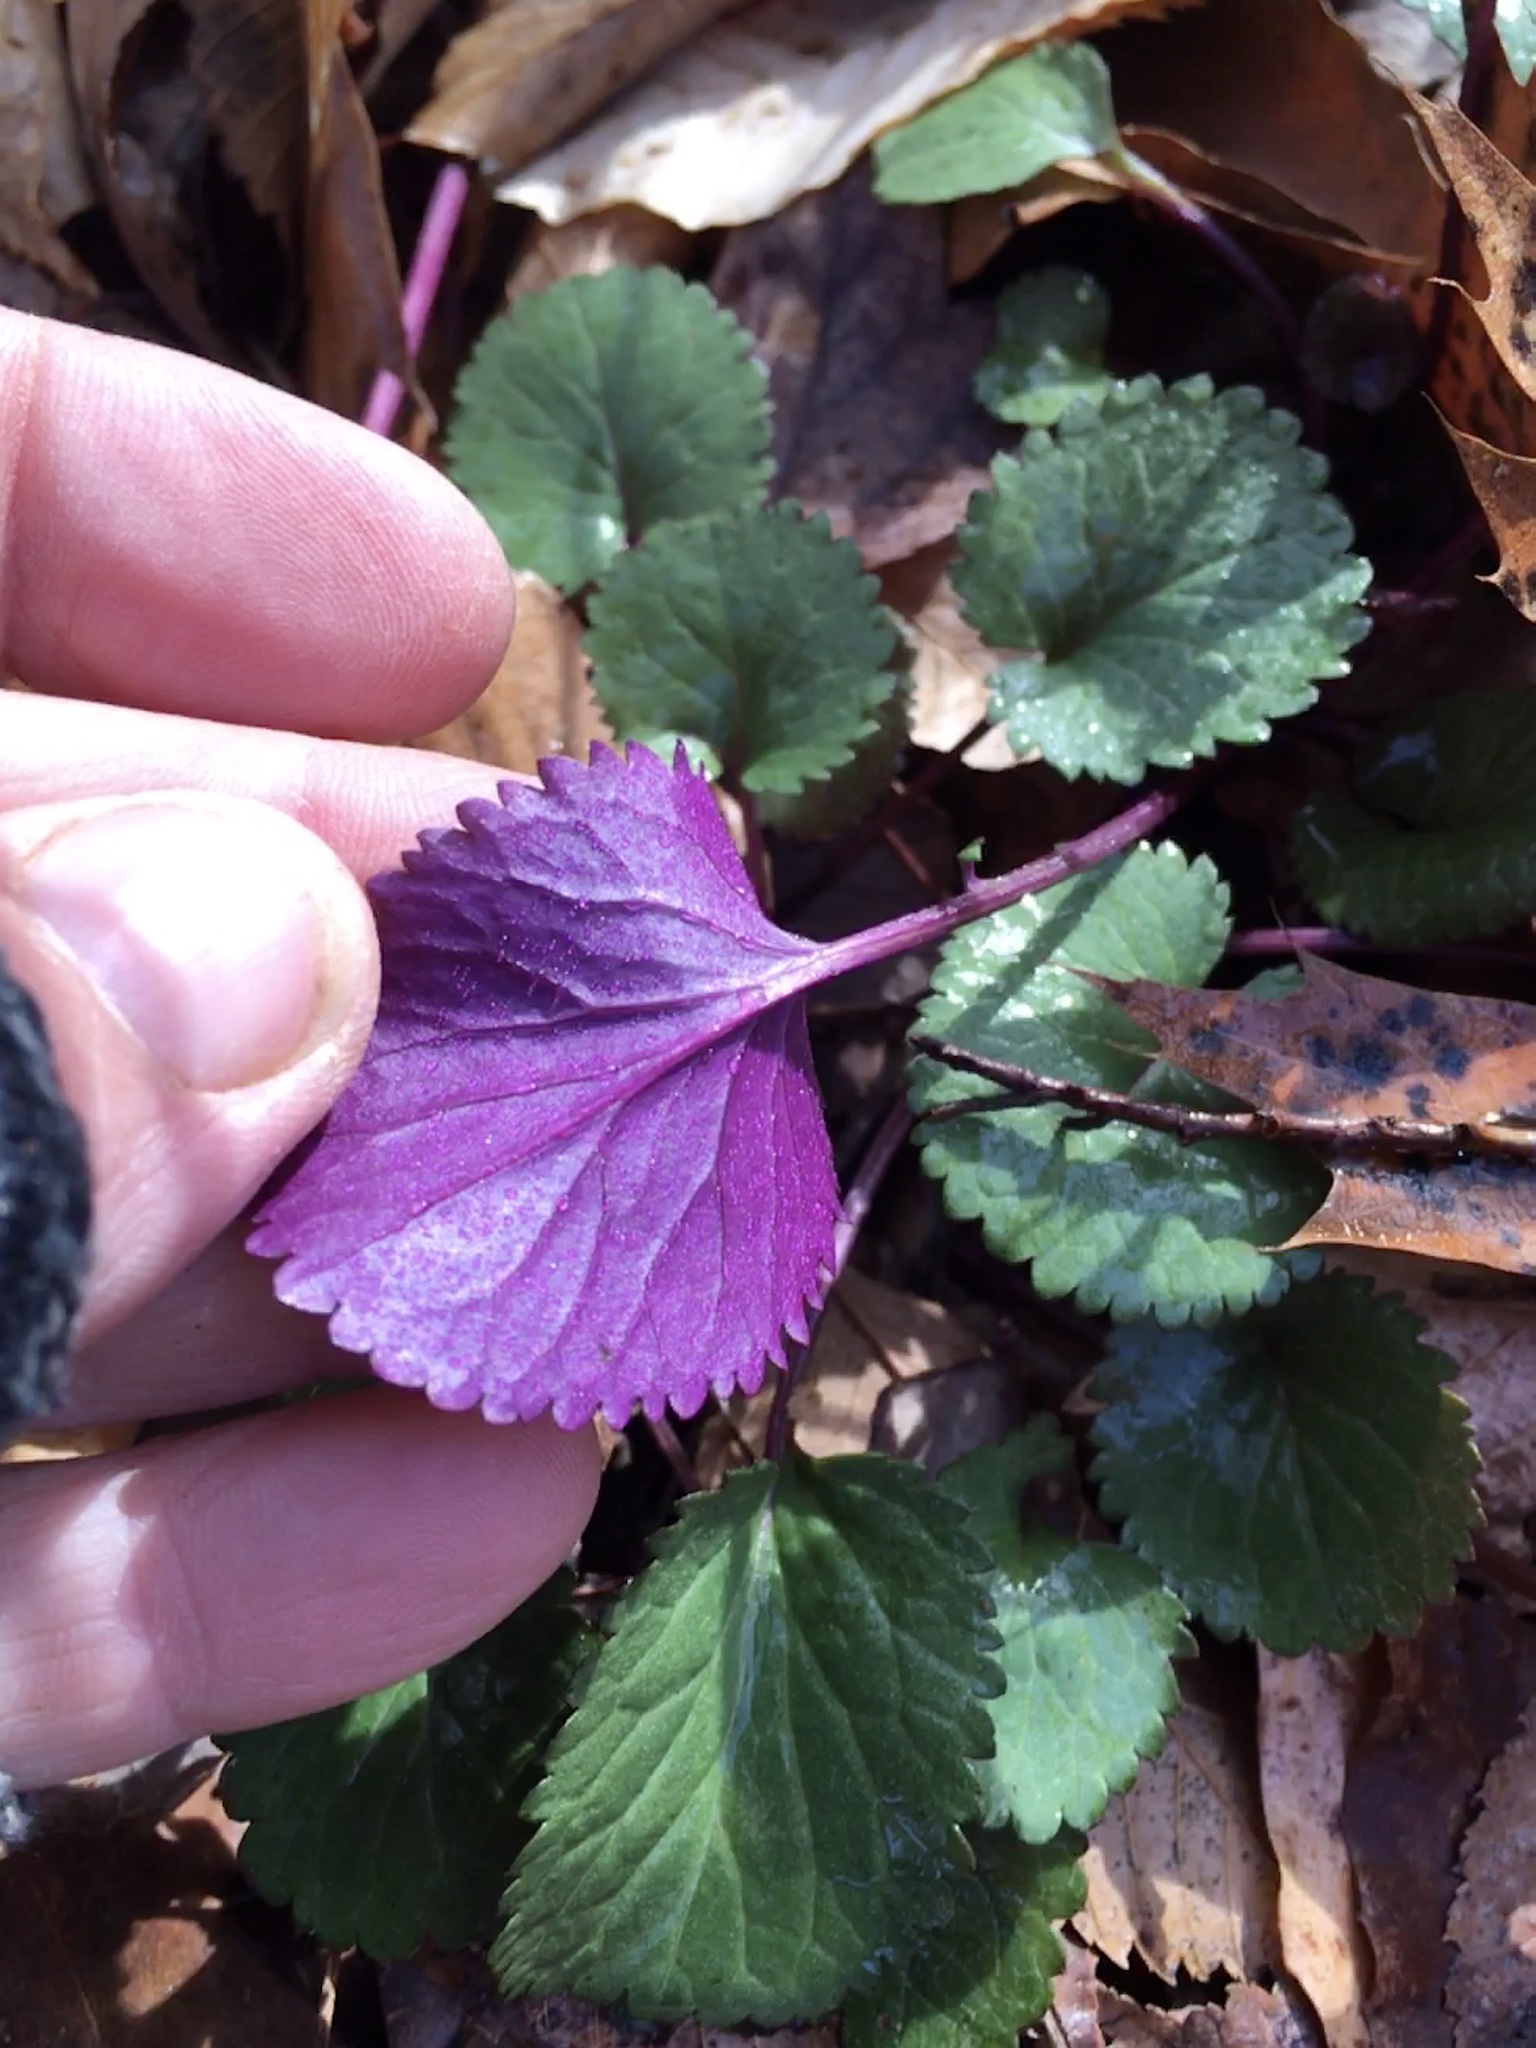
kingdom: Plantae
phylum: Tracheophyta
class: Magnoliopsida
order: Asterales
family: Asteraceae
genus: Packera
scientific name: Packera aurea
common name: Golden groundsel
